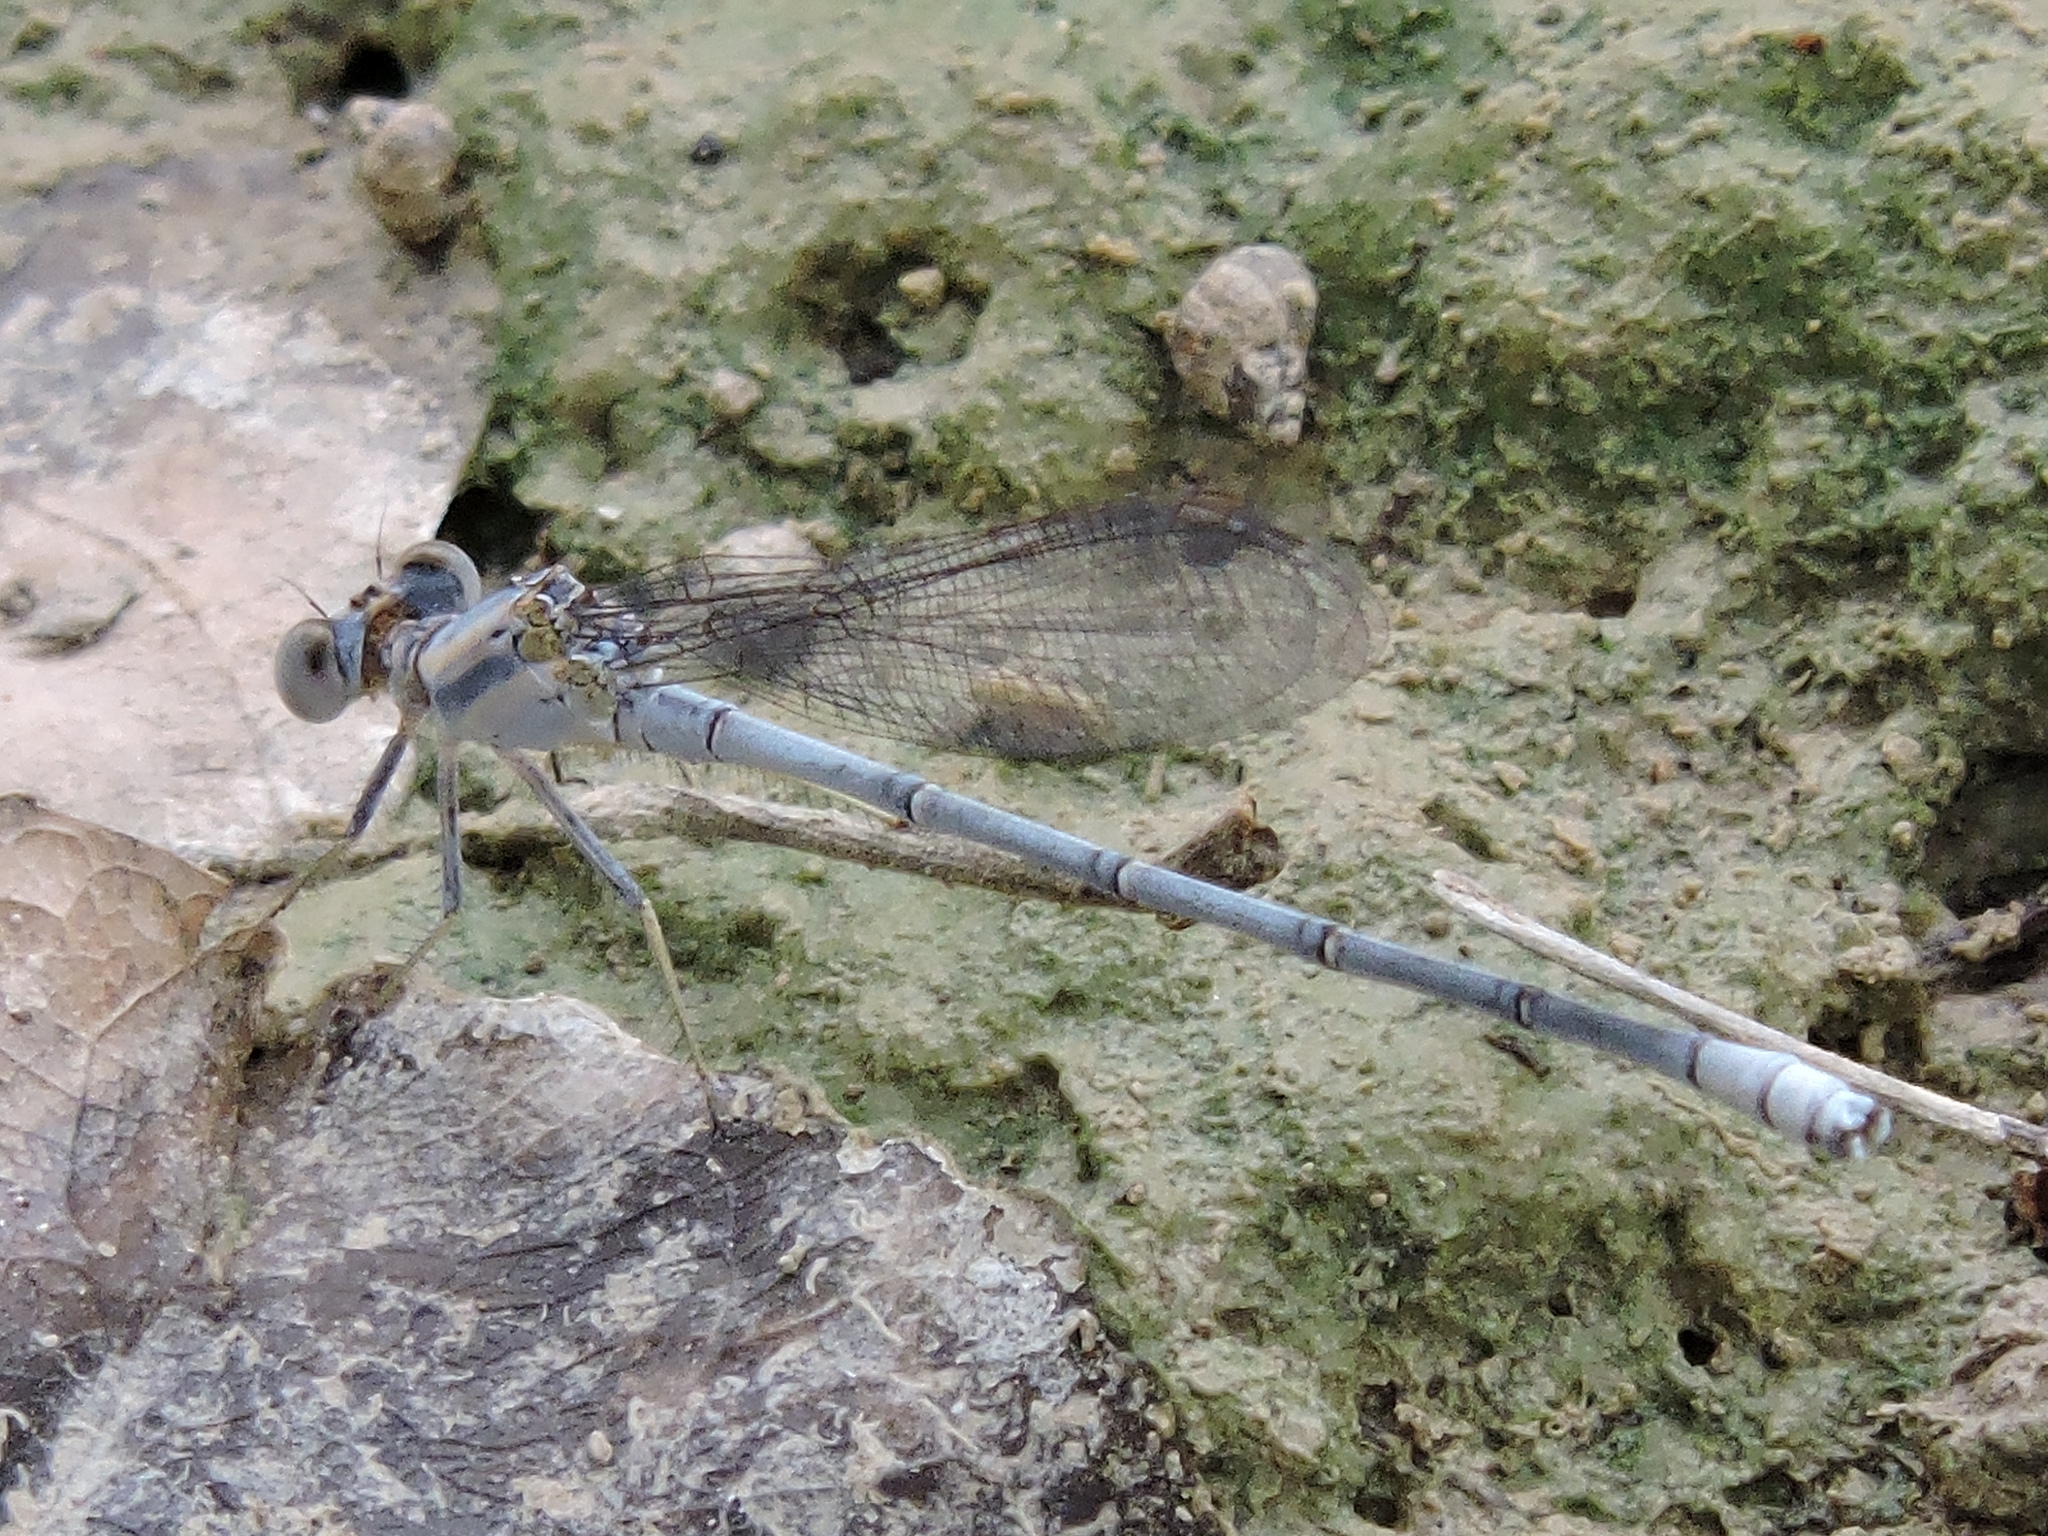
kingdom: Animalia
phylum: Arthropoda
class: Insecta
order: Odonata
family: Coenagrionidae
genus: Argia
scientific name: Argia moesta
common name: Powdered dancer
